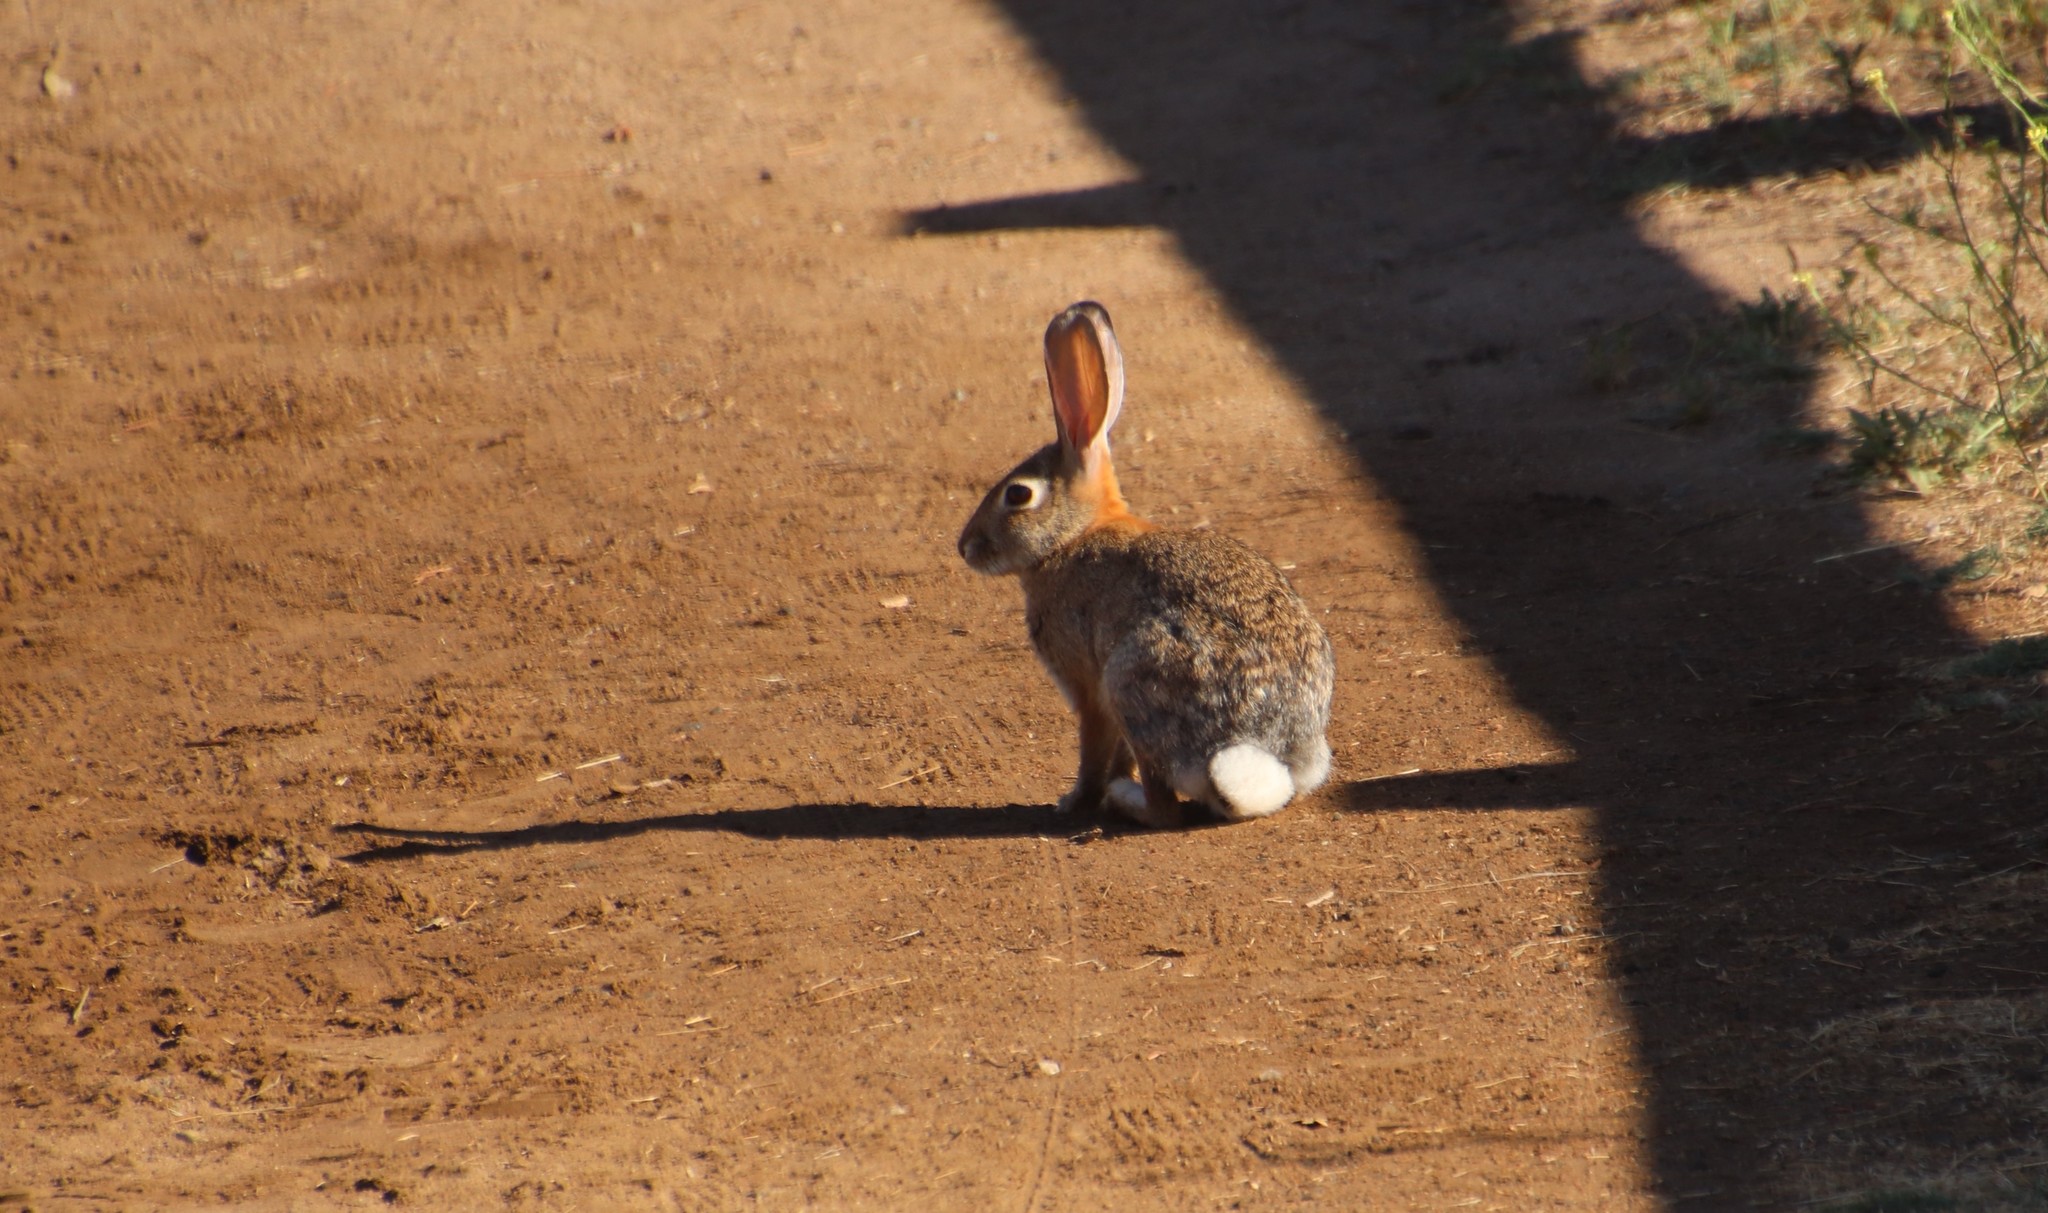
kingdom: Animalia
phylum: Chordata
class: Mammalia
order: Lagomorpha
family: Leporidae
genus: Sylvilagus
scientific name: Sylvilagus audubonii
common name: Desert cottontail
